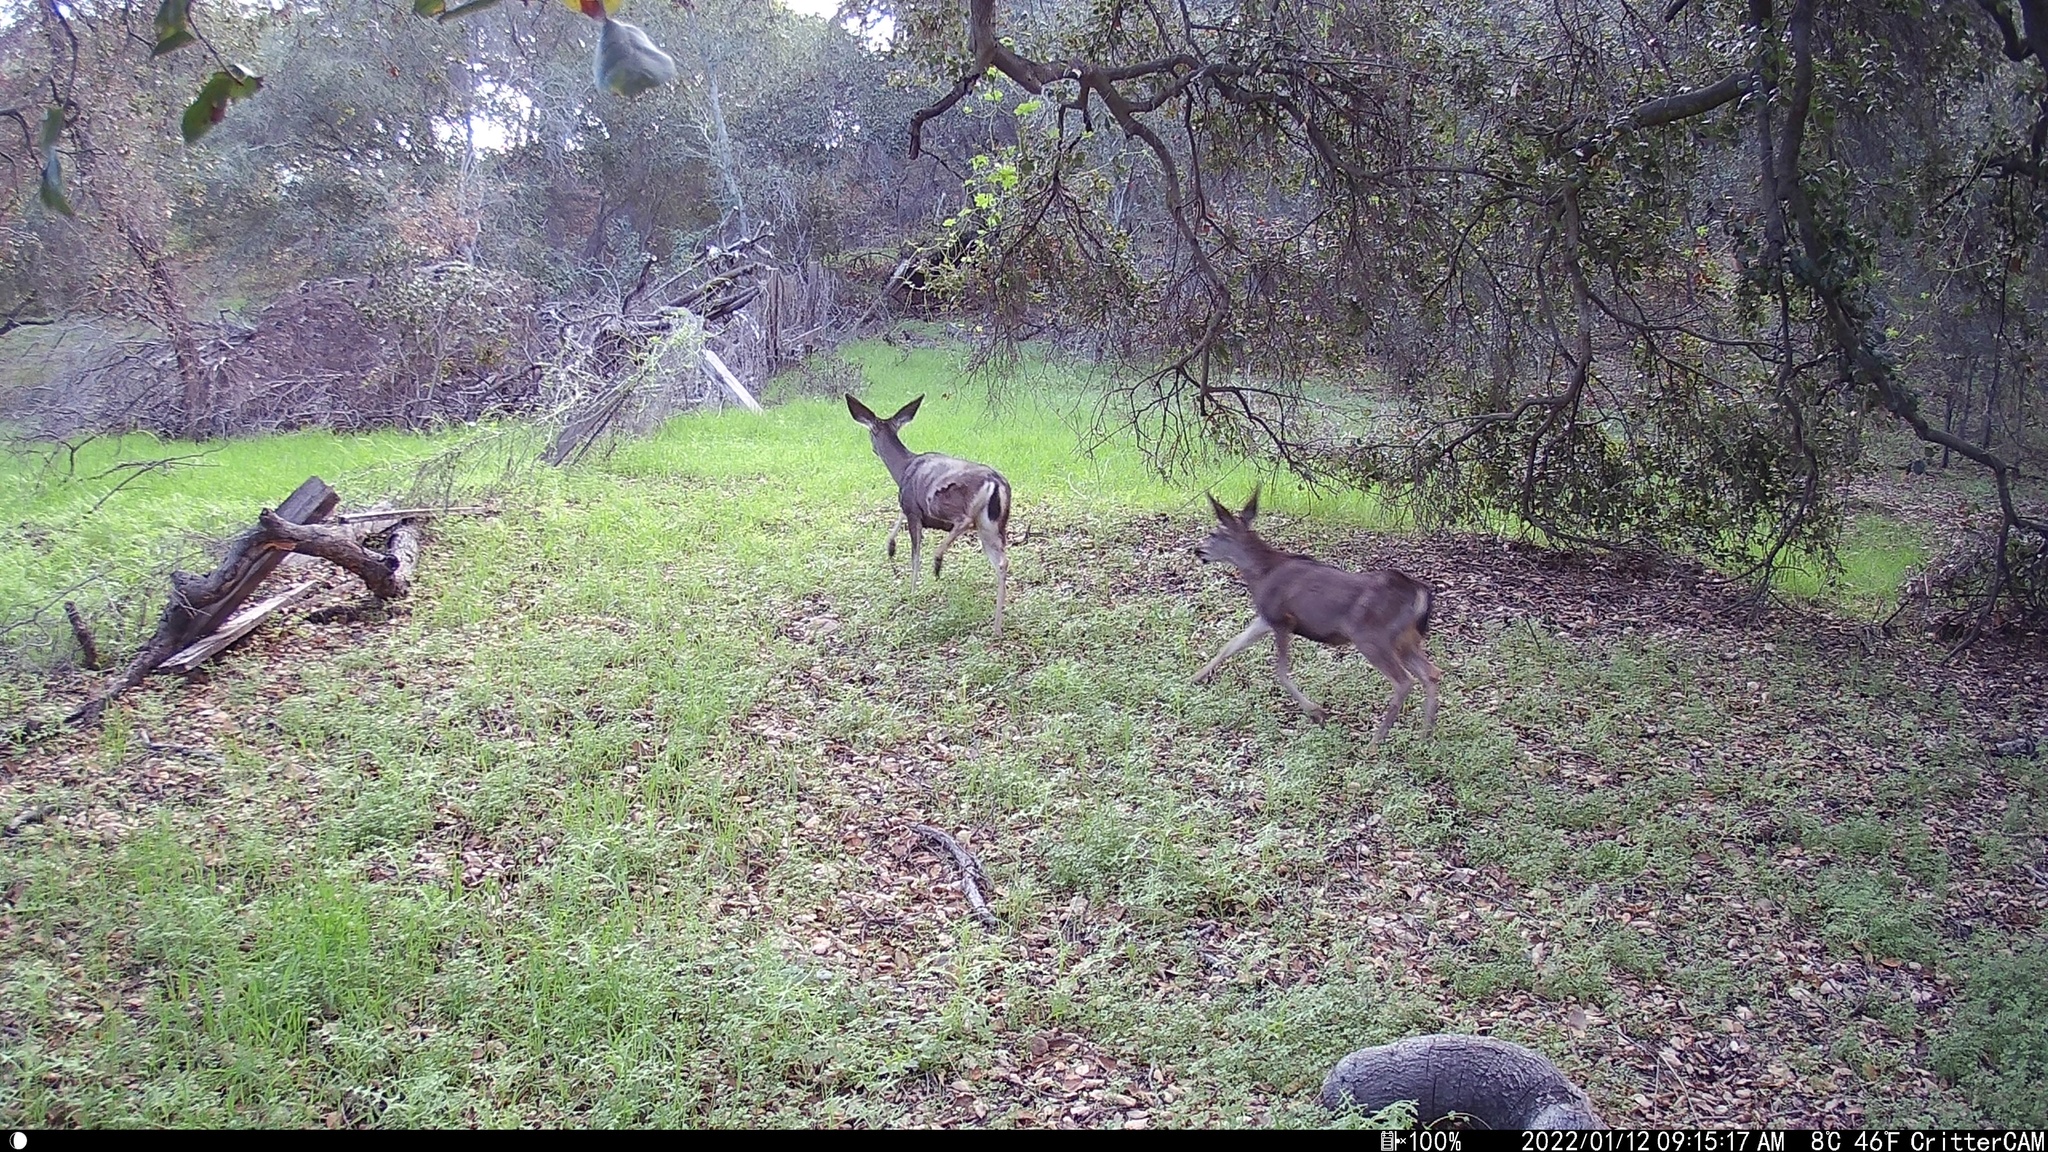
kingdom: Animalia
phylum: Chordata
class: Mammalia
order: Artiodactyla
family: Cervidae
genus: Odocoileus
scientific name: Odocoileus hemionus
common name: Mule deer
